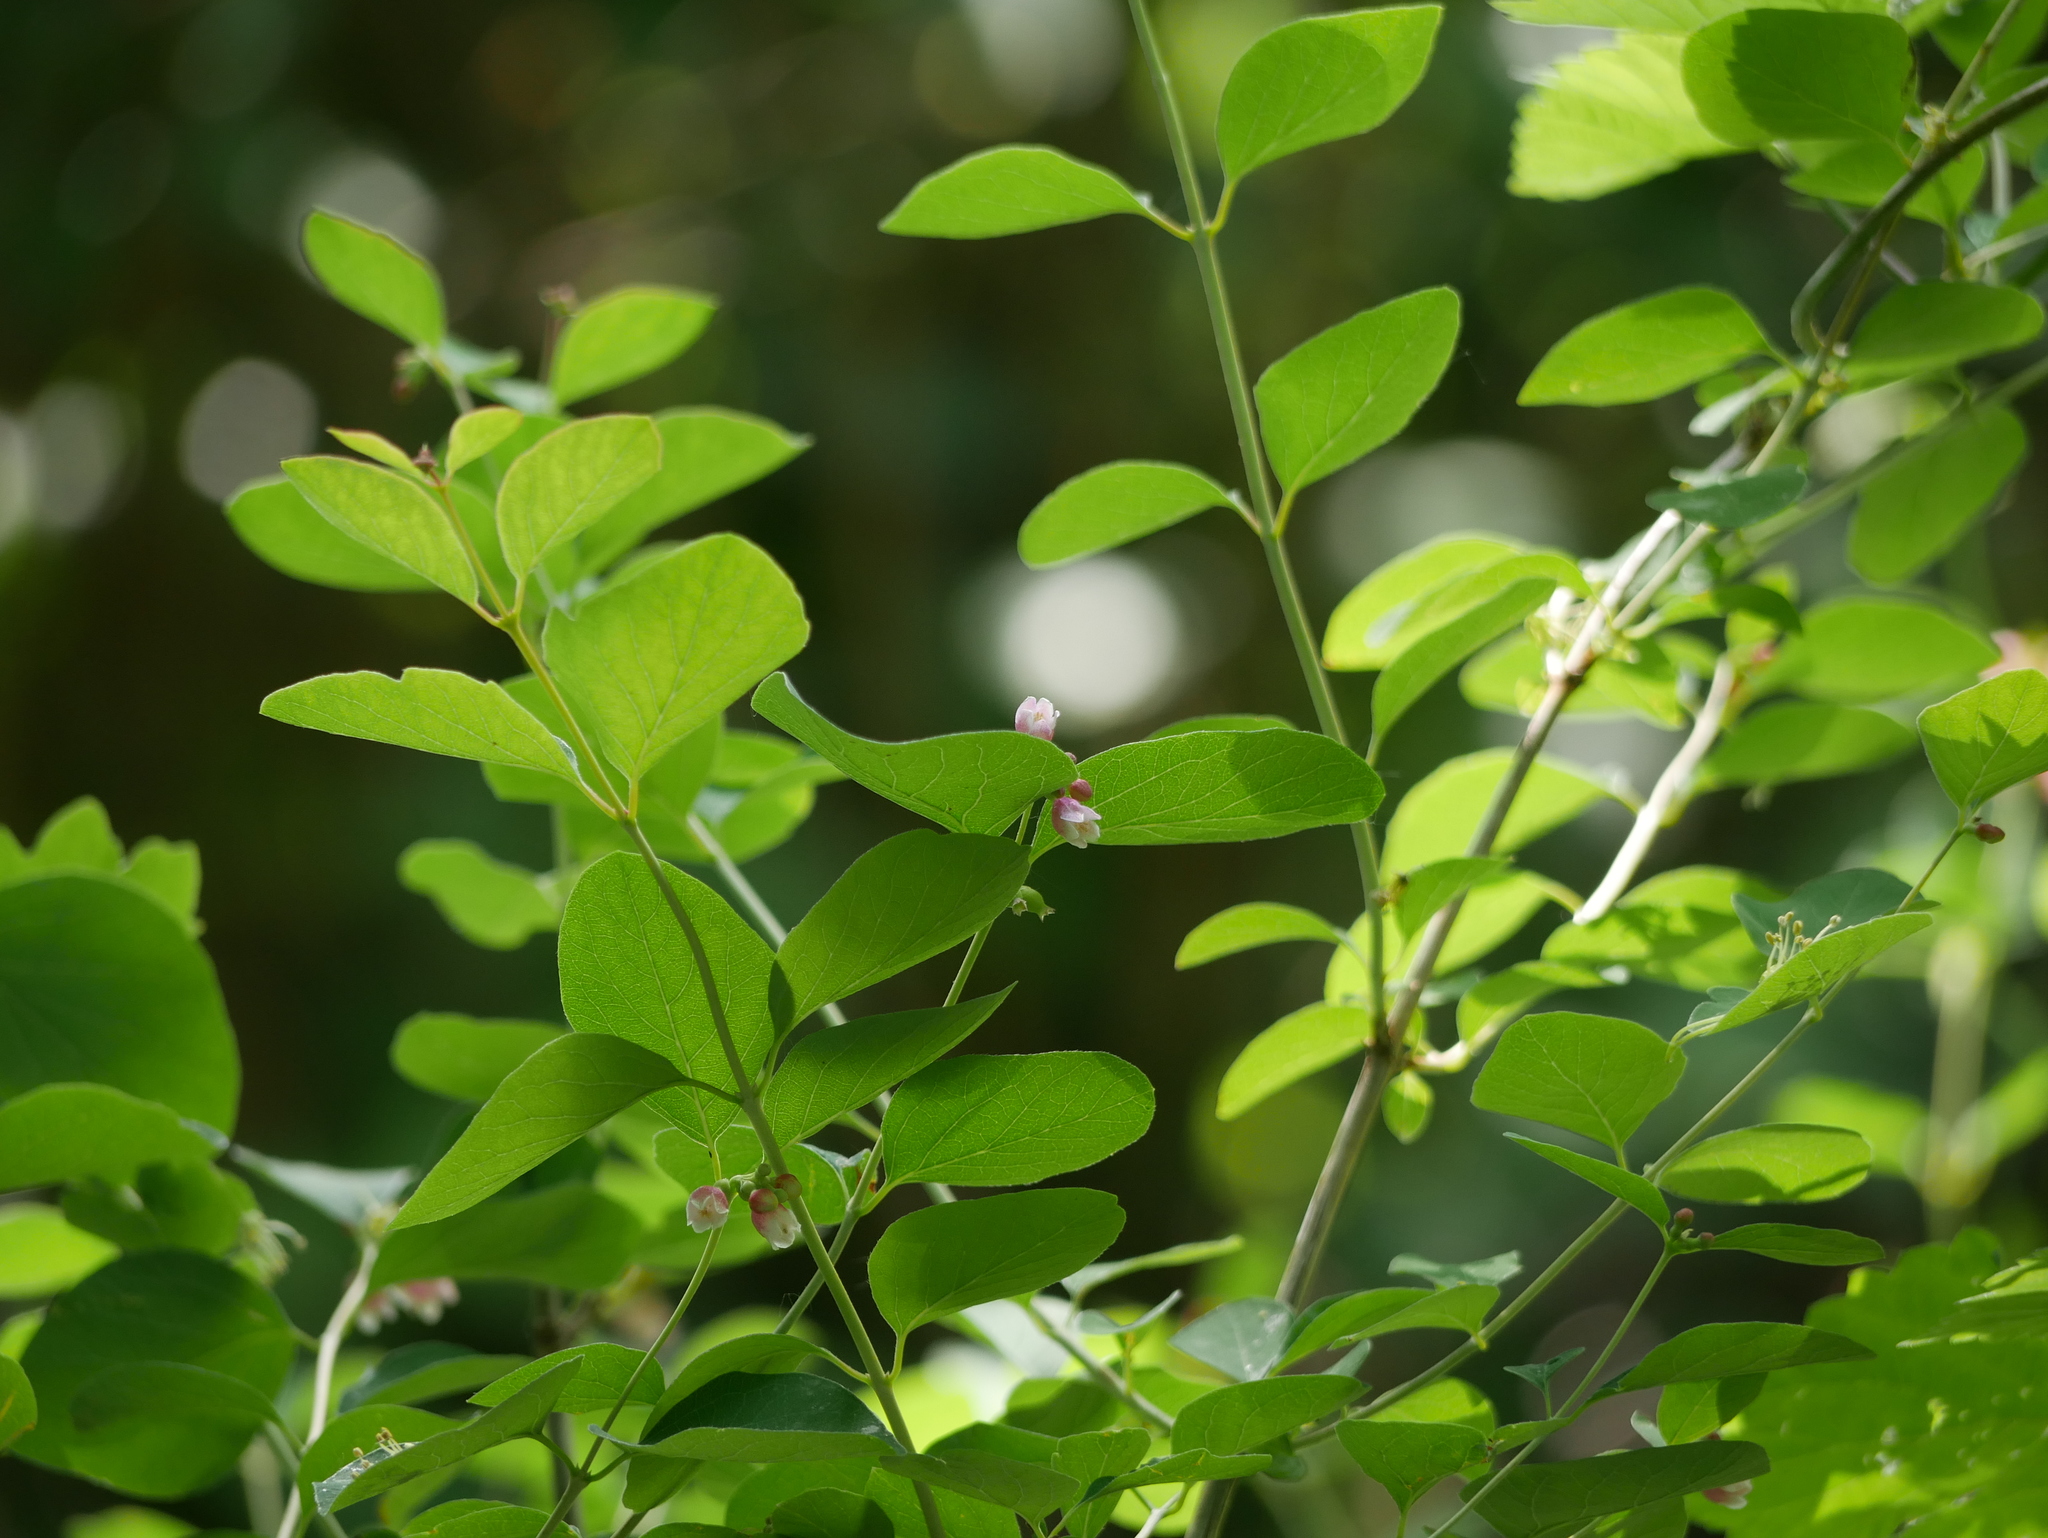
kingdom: Plantae
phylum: Tracheophyta
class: Magnoliopsida
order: Dipsacales
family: Caprifoliaceae
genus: Symphoricarpos
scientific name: Symphoricarpos albus
